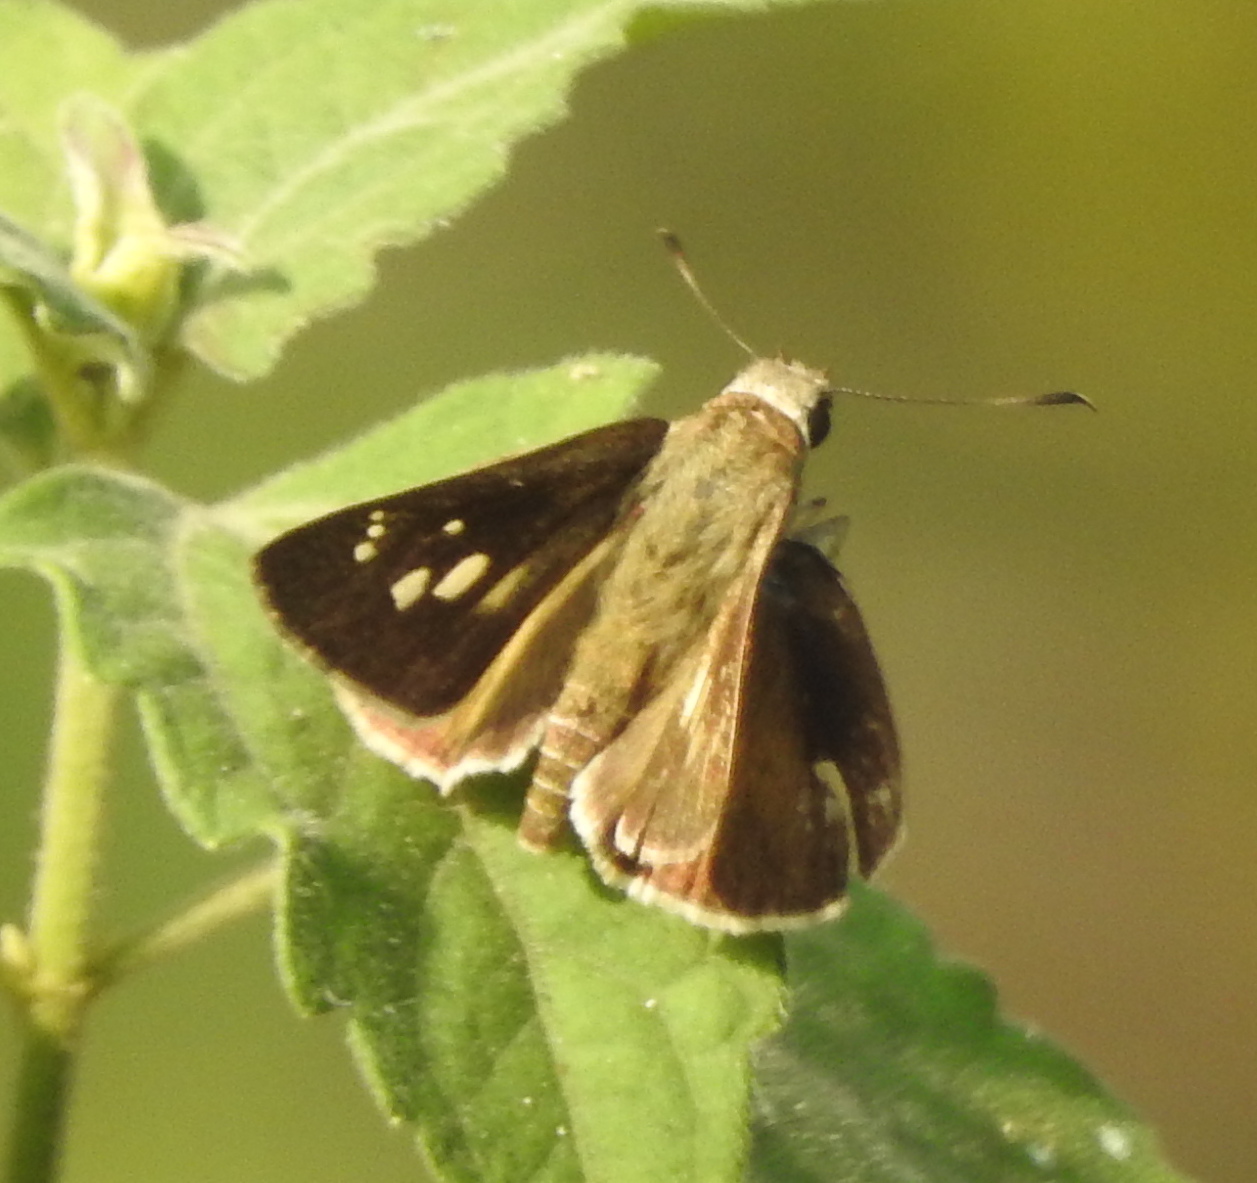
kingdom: Animalia
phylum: Arthropoda
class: Insecta
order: Lepidoptera
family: Hesperiidae
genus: Suastus
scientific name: Suastus gremius
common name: Indian palm bob
